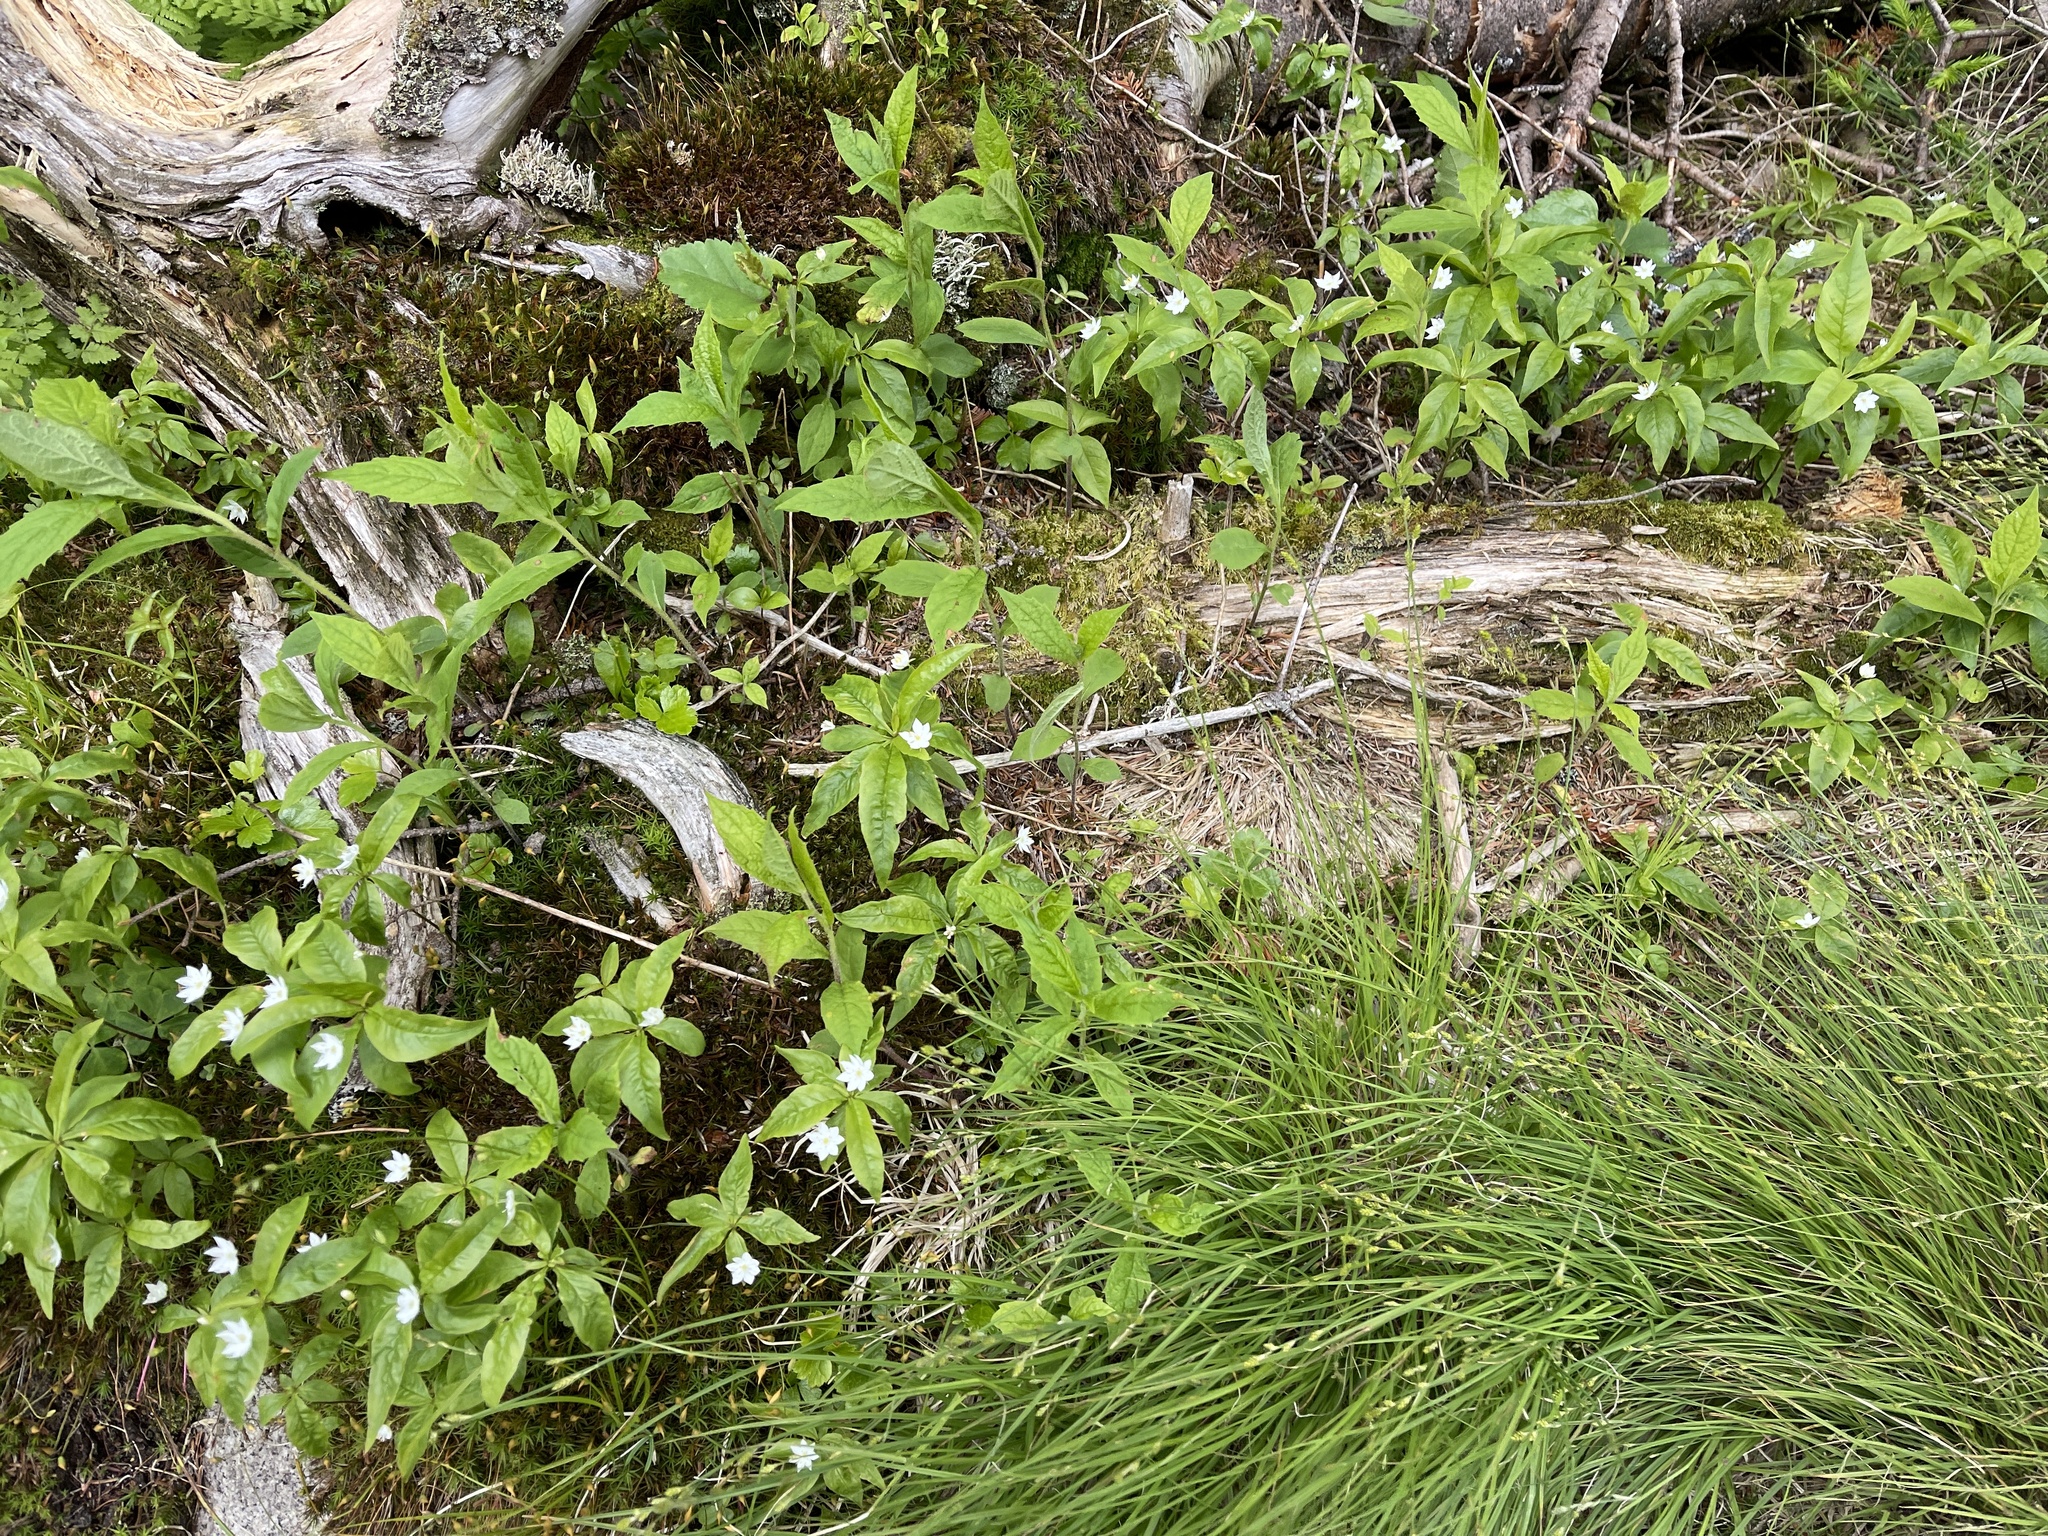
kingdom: Plantae
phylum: Tracheophyta
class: Magnoliopsida
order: Ericales
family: Primulaceae
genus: Lysimachia
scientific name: Lysimachia borealis
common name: American starflower
